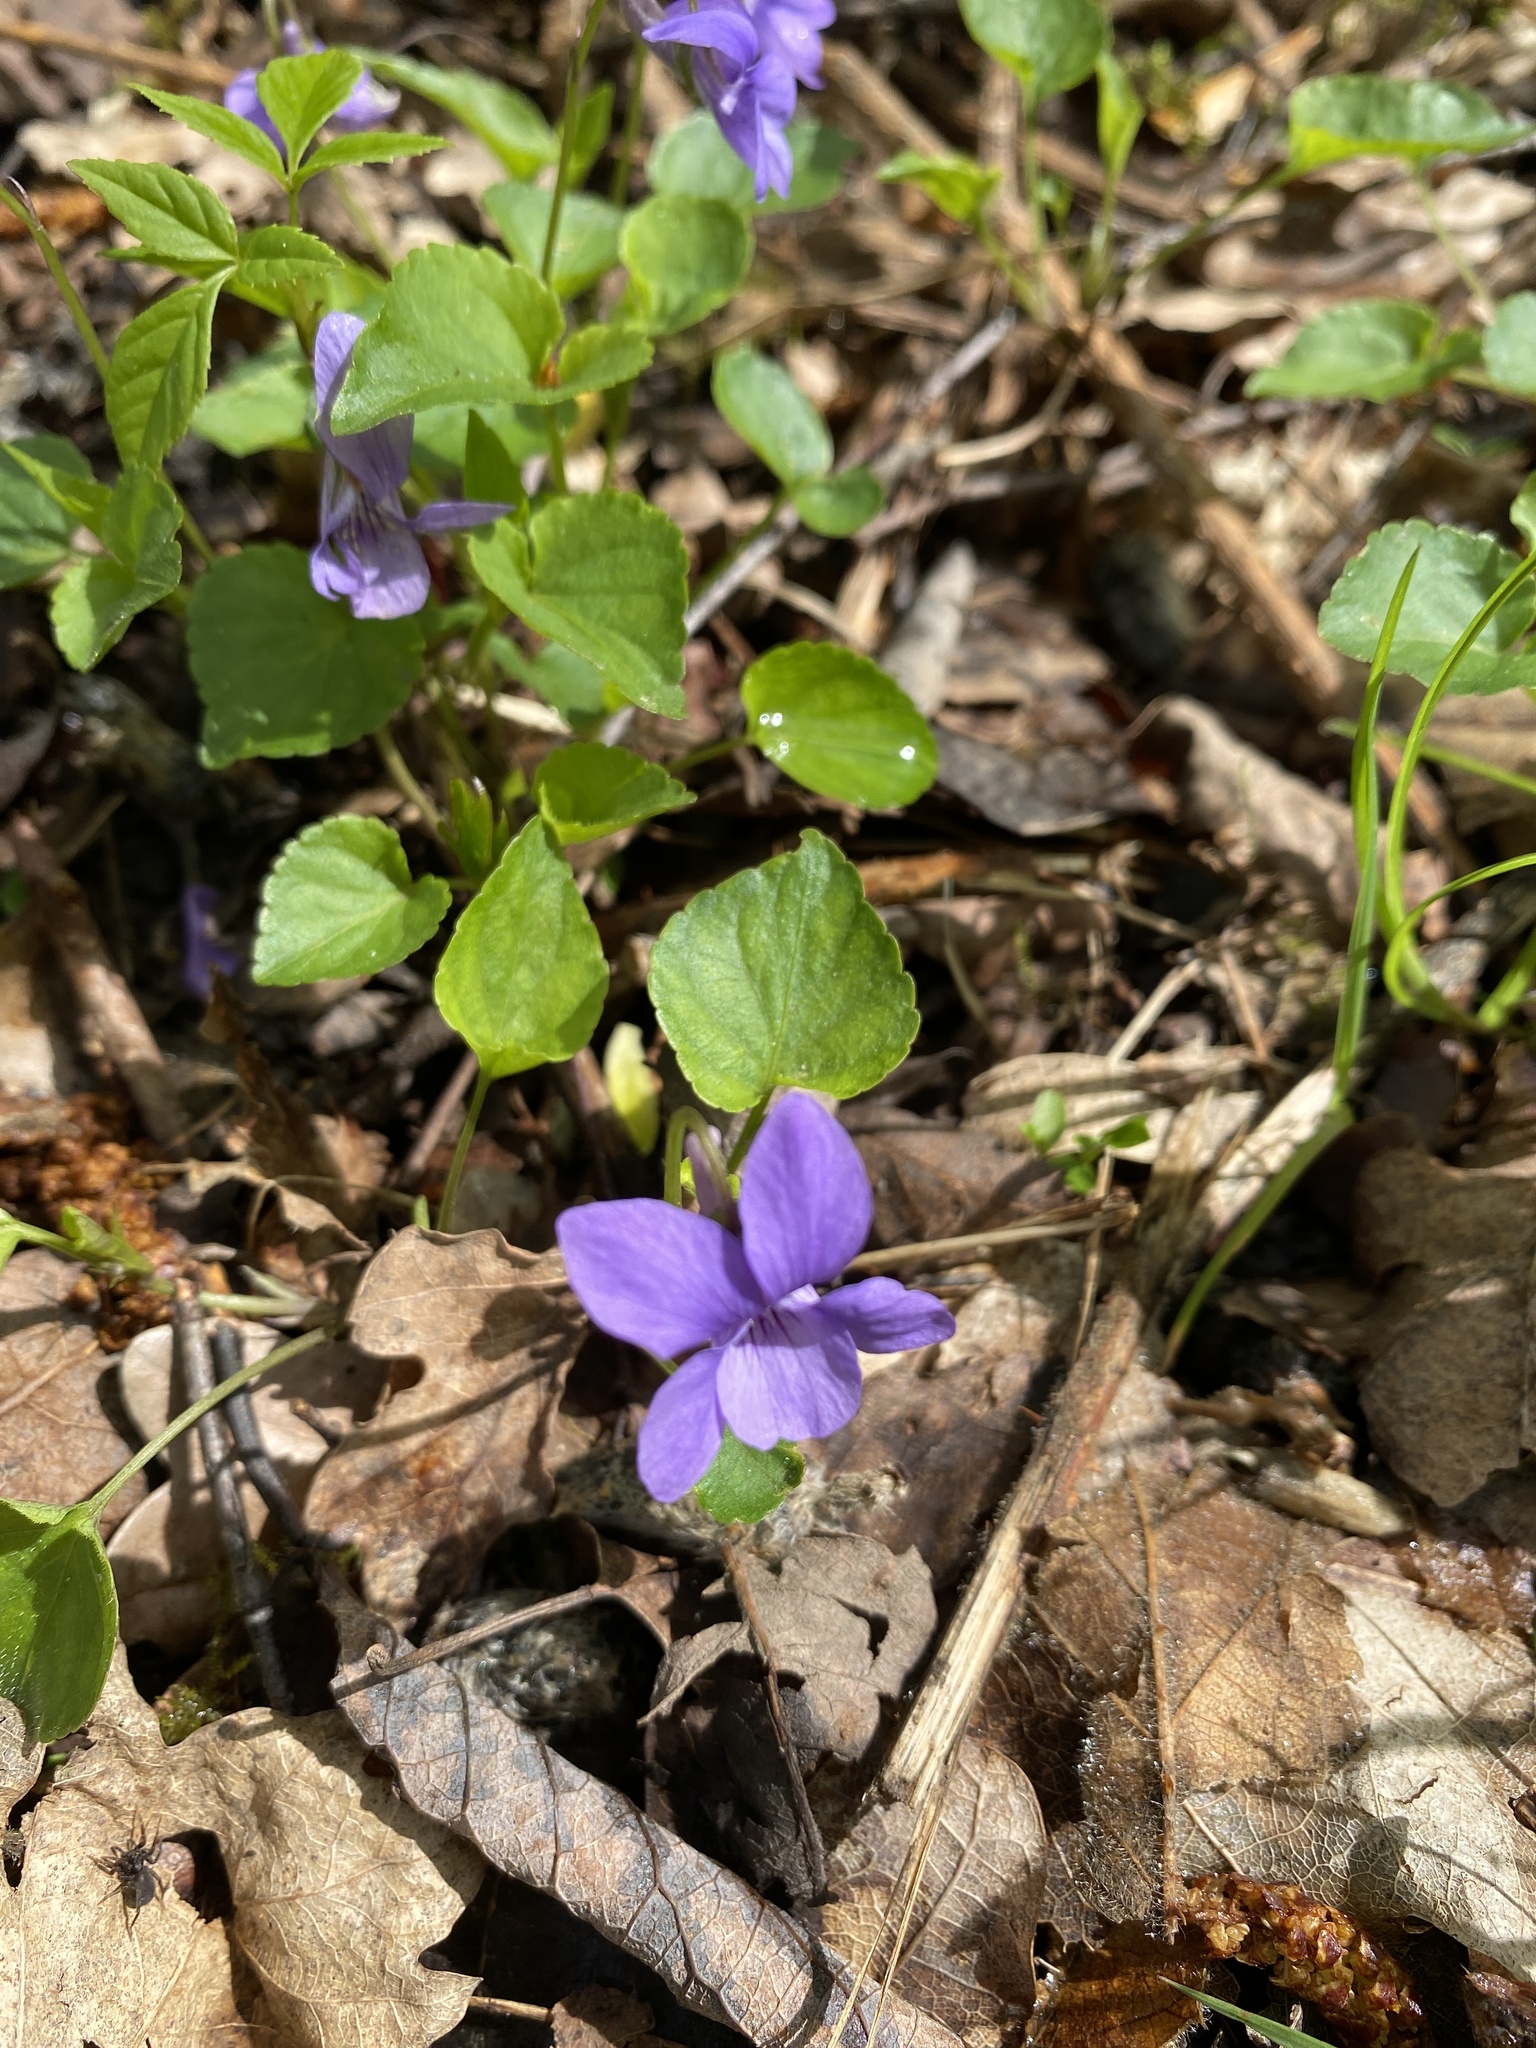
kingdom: Plantae
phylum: Tracheophyta
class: Magnoliopsida
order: Malpighiales
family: Violaceae
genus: Viola
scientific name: Viola riviniana
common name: Common dog-violet
